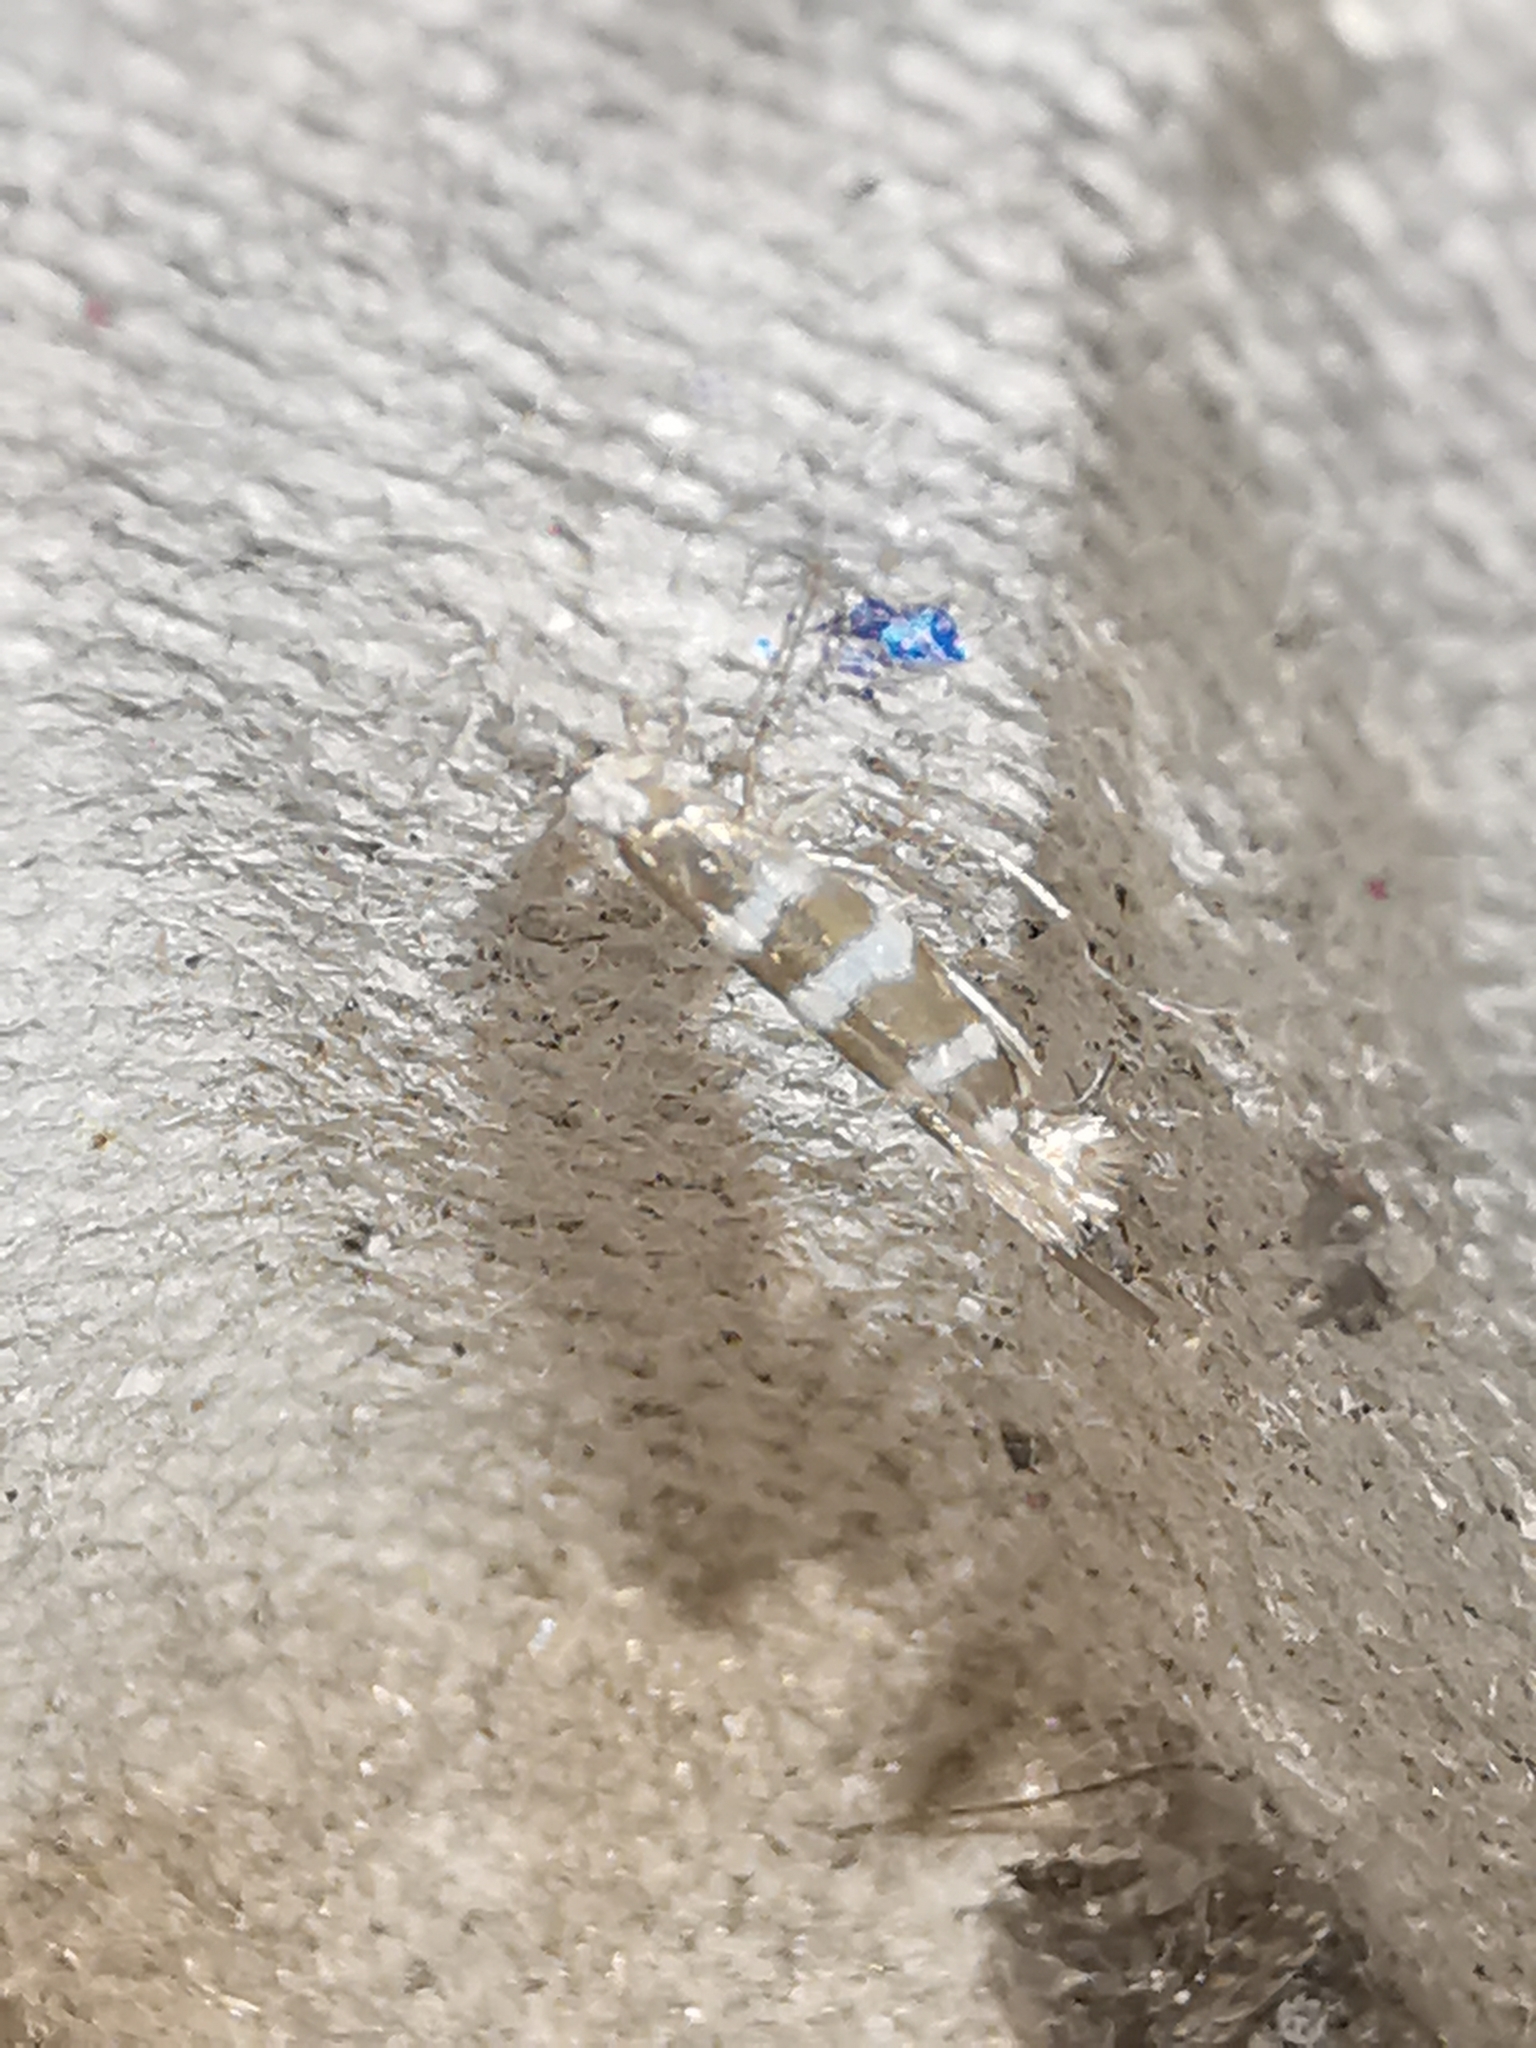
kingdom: Animalia
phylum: Arthropoda
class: Insecta
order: Lepidoptera
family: Argyresthiidae
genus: Argyresthia
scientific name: Argyresthia trifasciata
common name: Triple-barred argent
